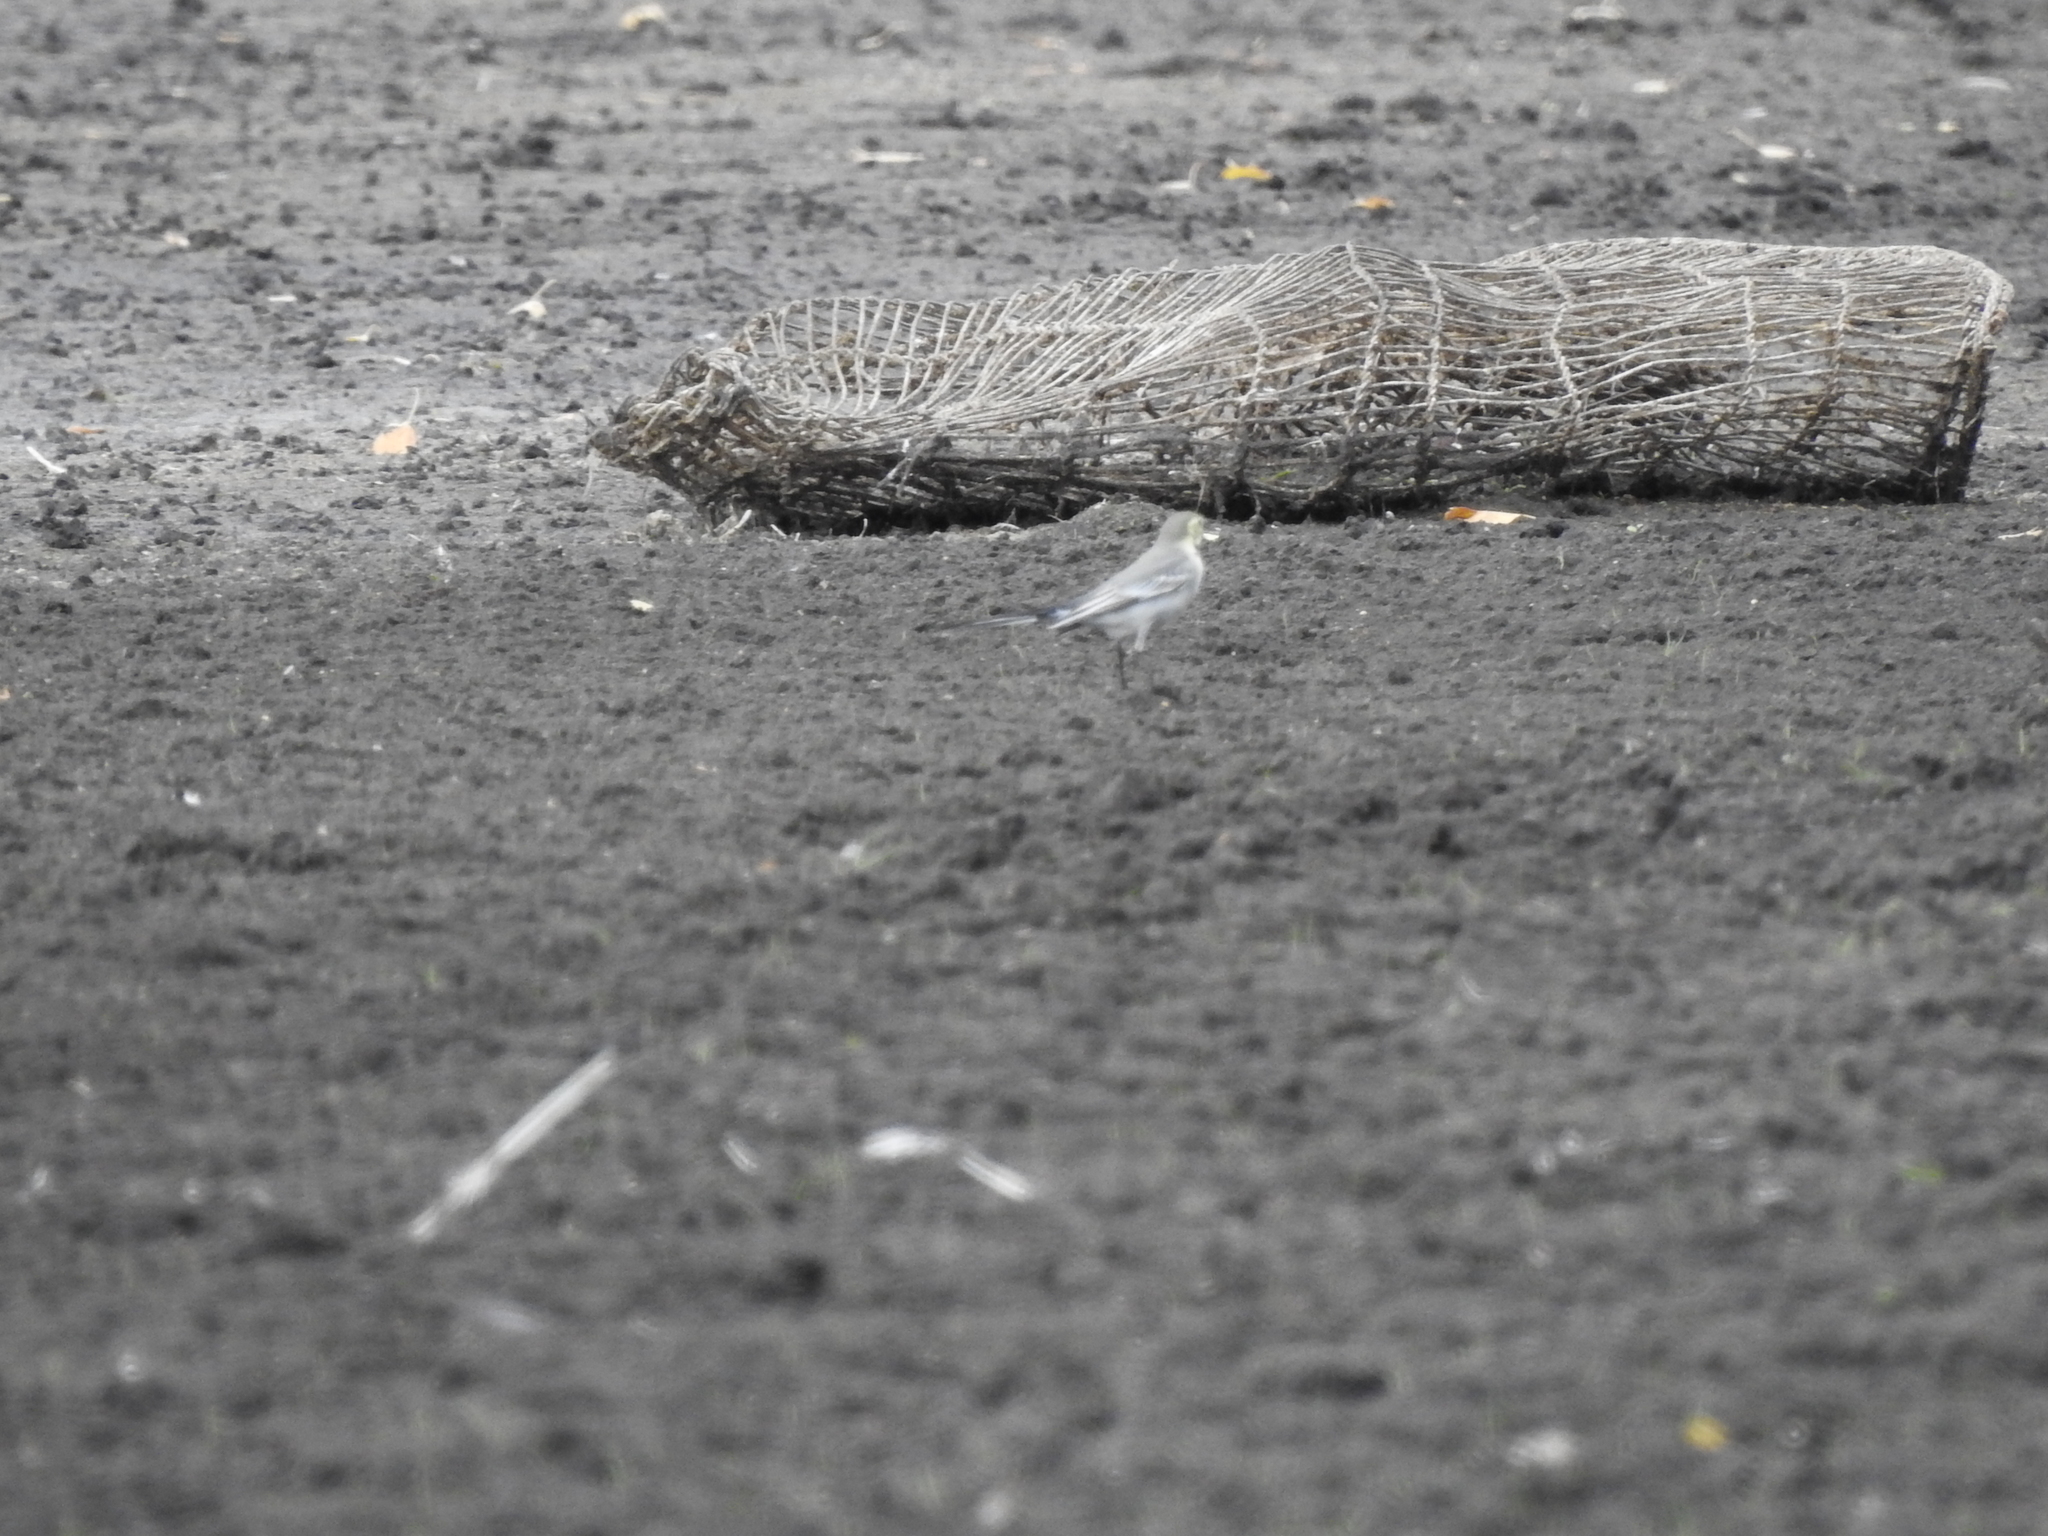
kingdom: Animalia
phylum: Chordata
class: Aves
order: Passeriformes
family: Motacillidae
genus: Motacilla
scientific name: Motacilla alba
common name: White wagtail
